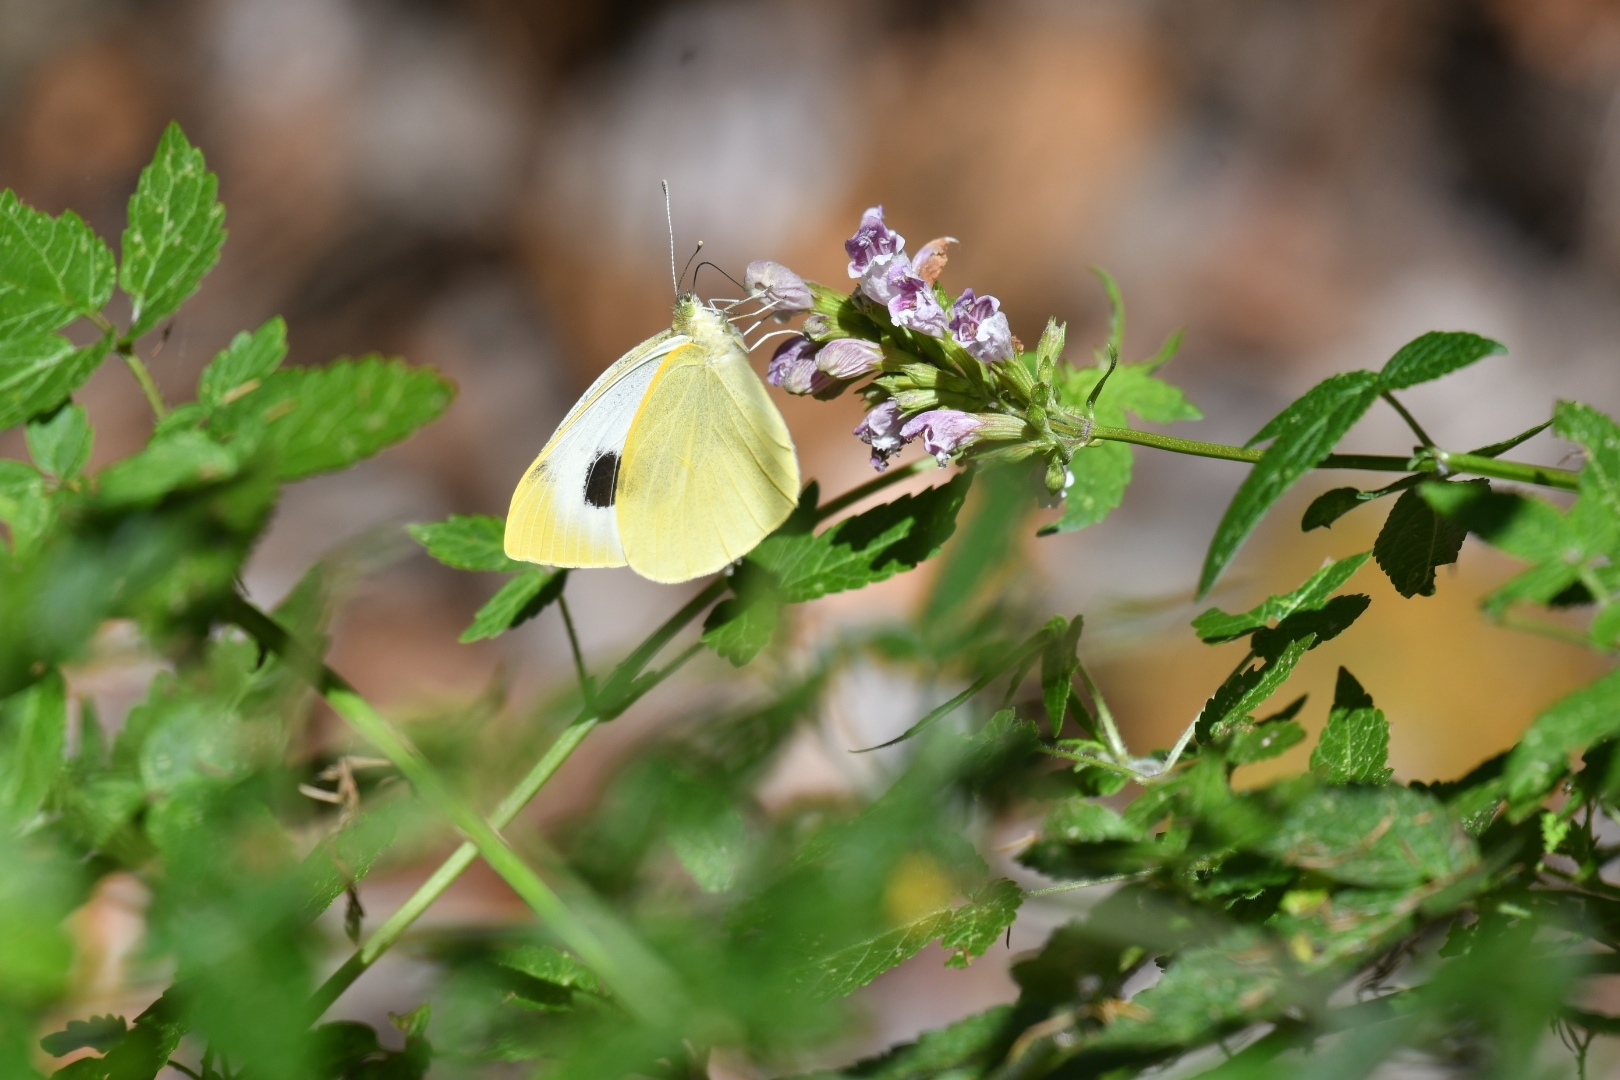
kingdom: Animalia
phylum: Arthropoda
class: Insecta
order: Lepidoptera
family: Pieridae
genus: Pieris
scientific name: Pieris cheiranthi
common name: Canary islands large white
